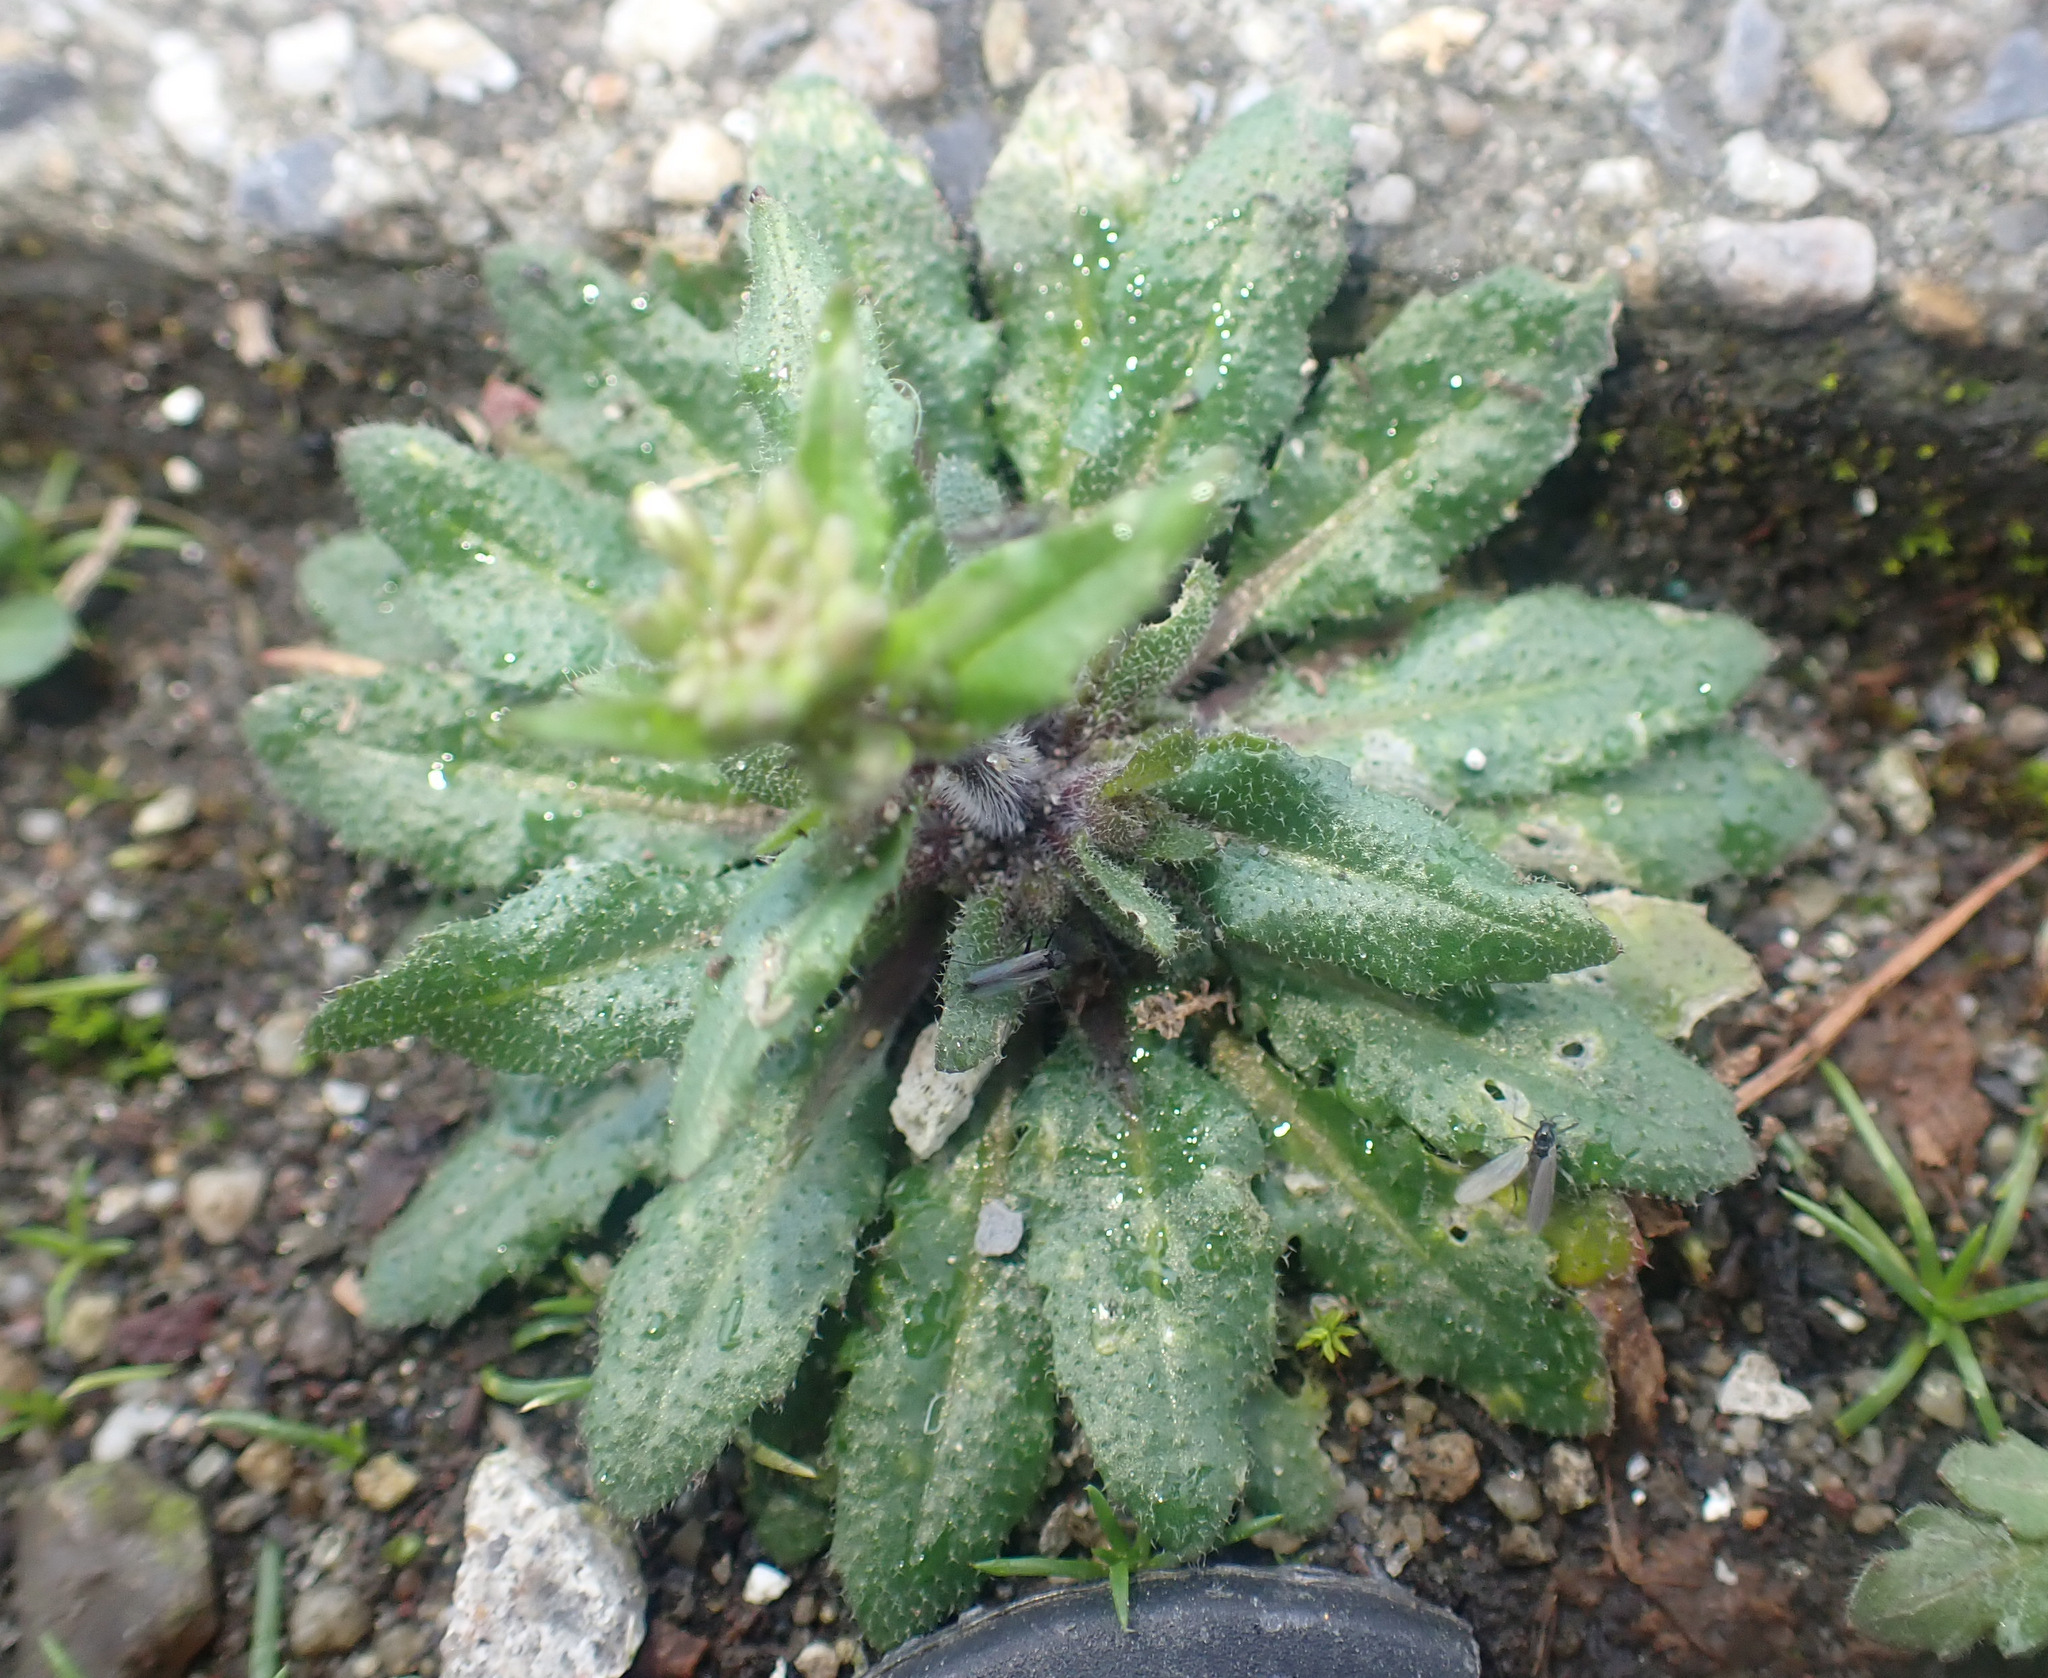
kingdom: Plantae
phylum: Tracheophyta
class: Magnoliopsida
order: Brassicales
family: Brassicaceae
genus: Arabidopsis
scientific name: Arabidopsis thaliana
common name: Thale cress
